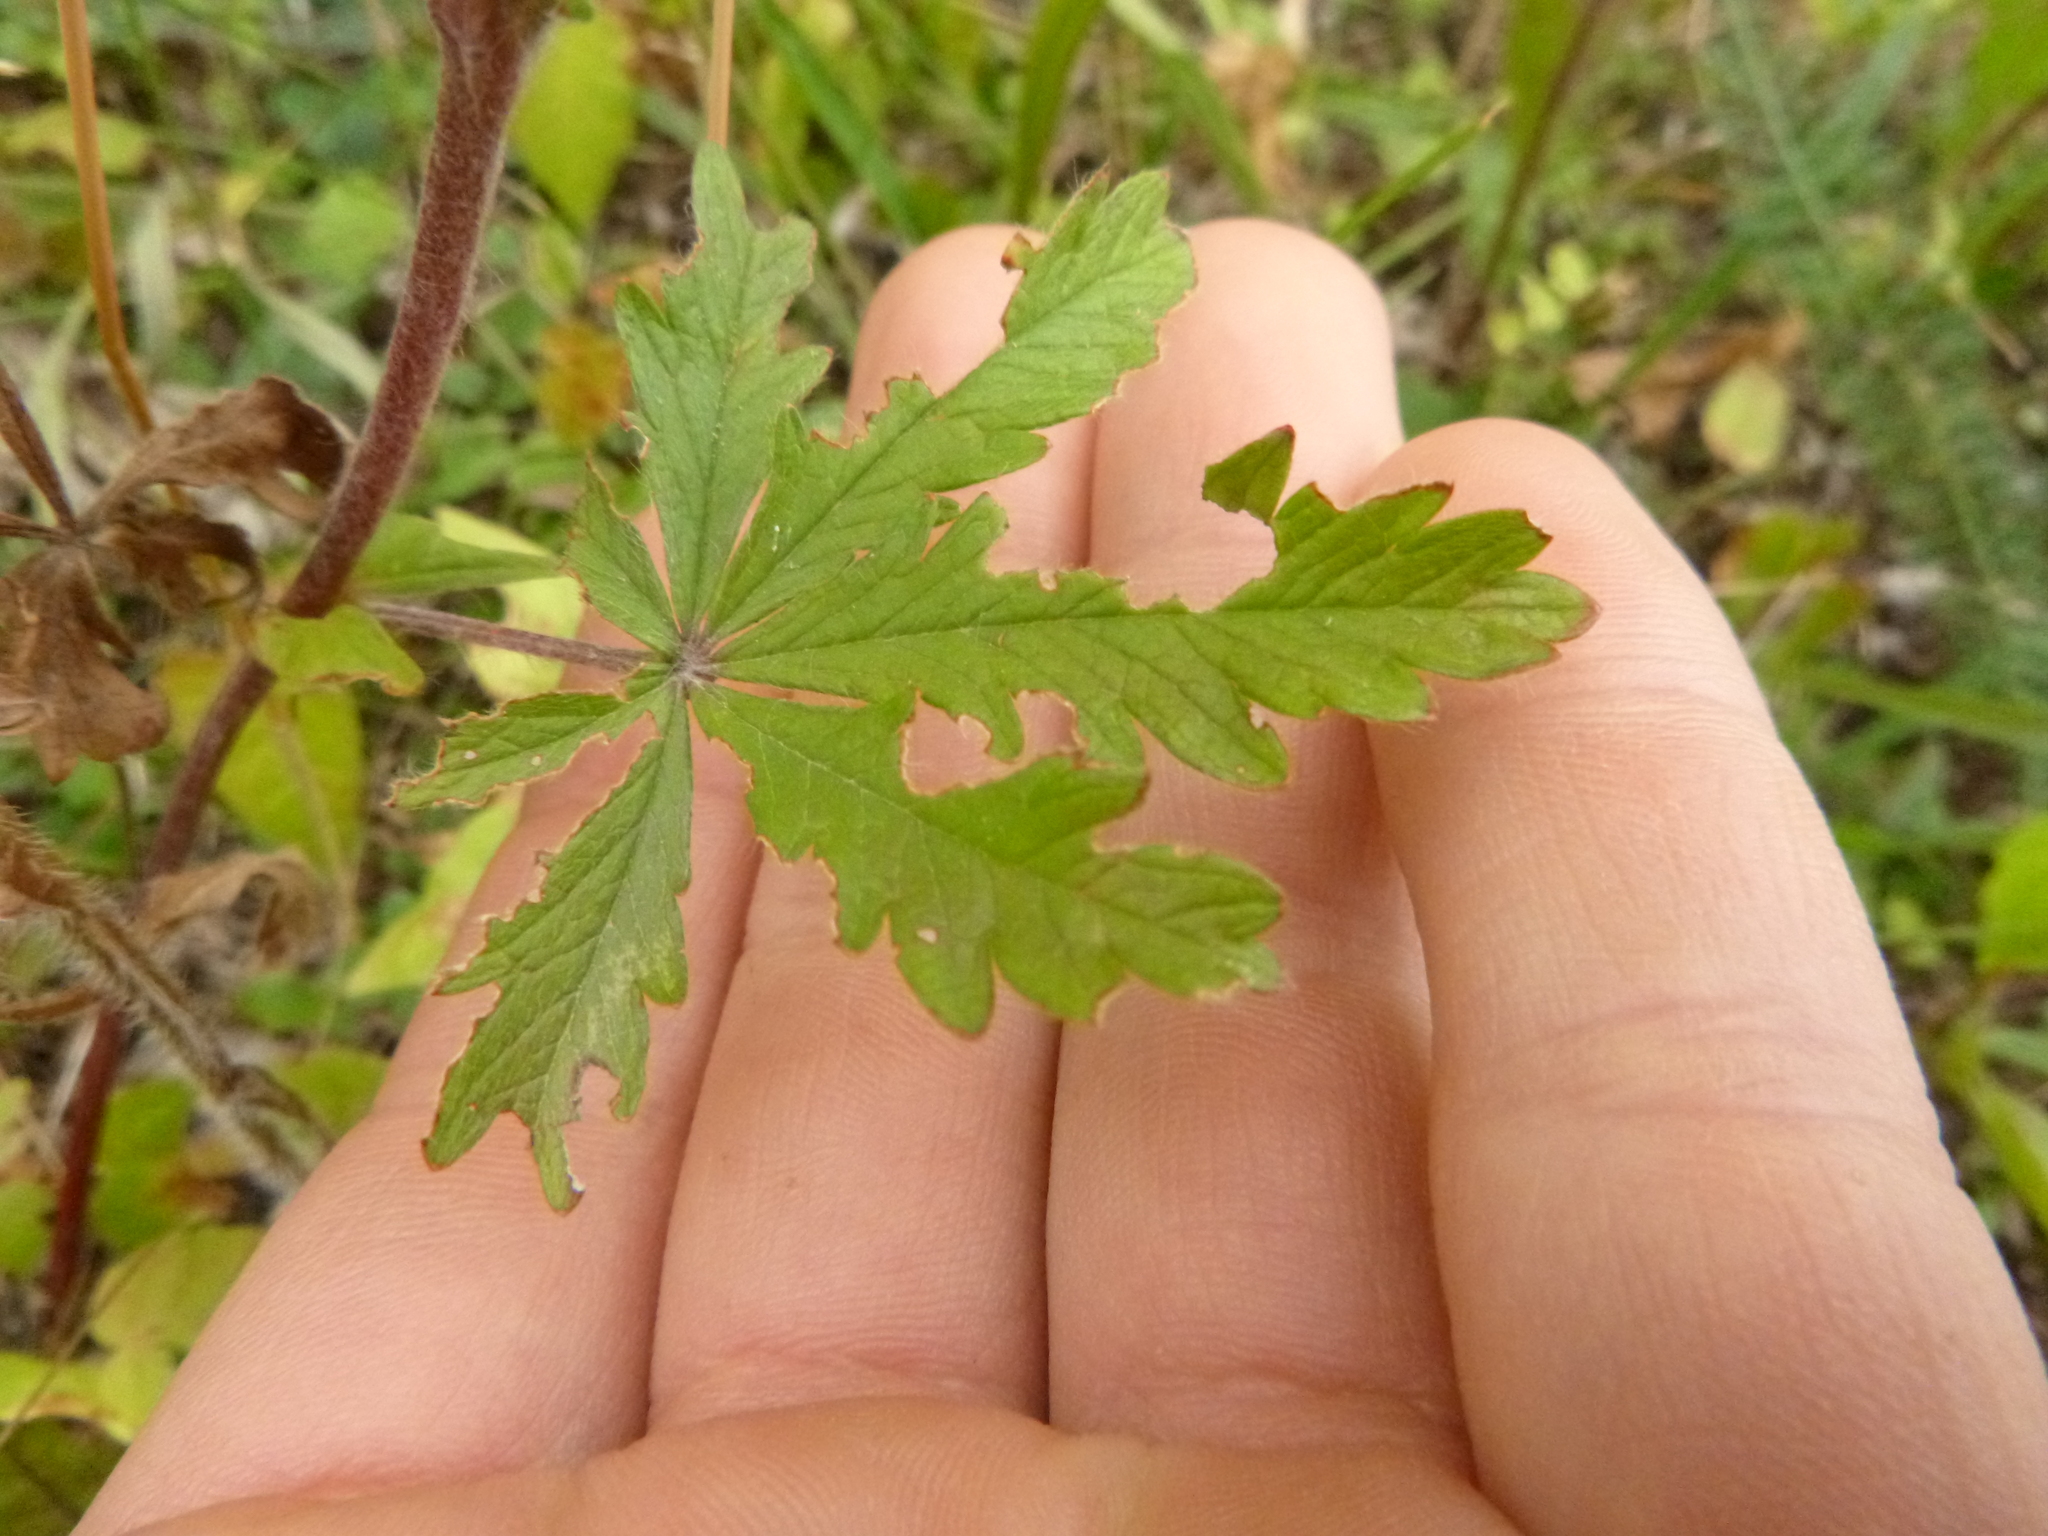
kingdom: Plantae
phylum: Tracheophyta
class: Magnoliopsida
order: Rosales
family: Rosaceae
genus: Potentilla
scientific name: Potentilla recta
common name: Sulphur cinquefoil
